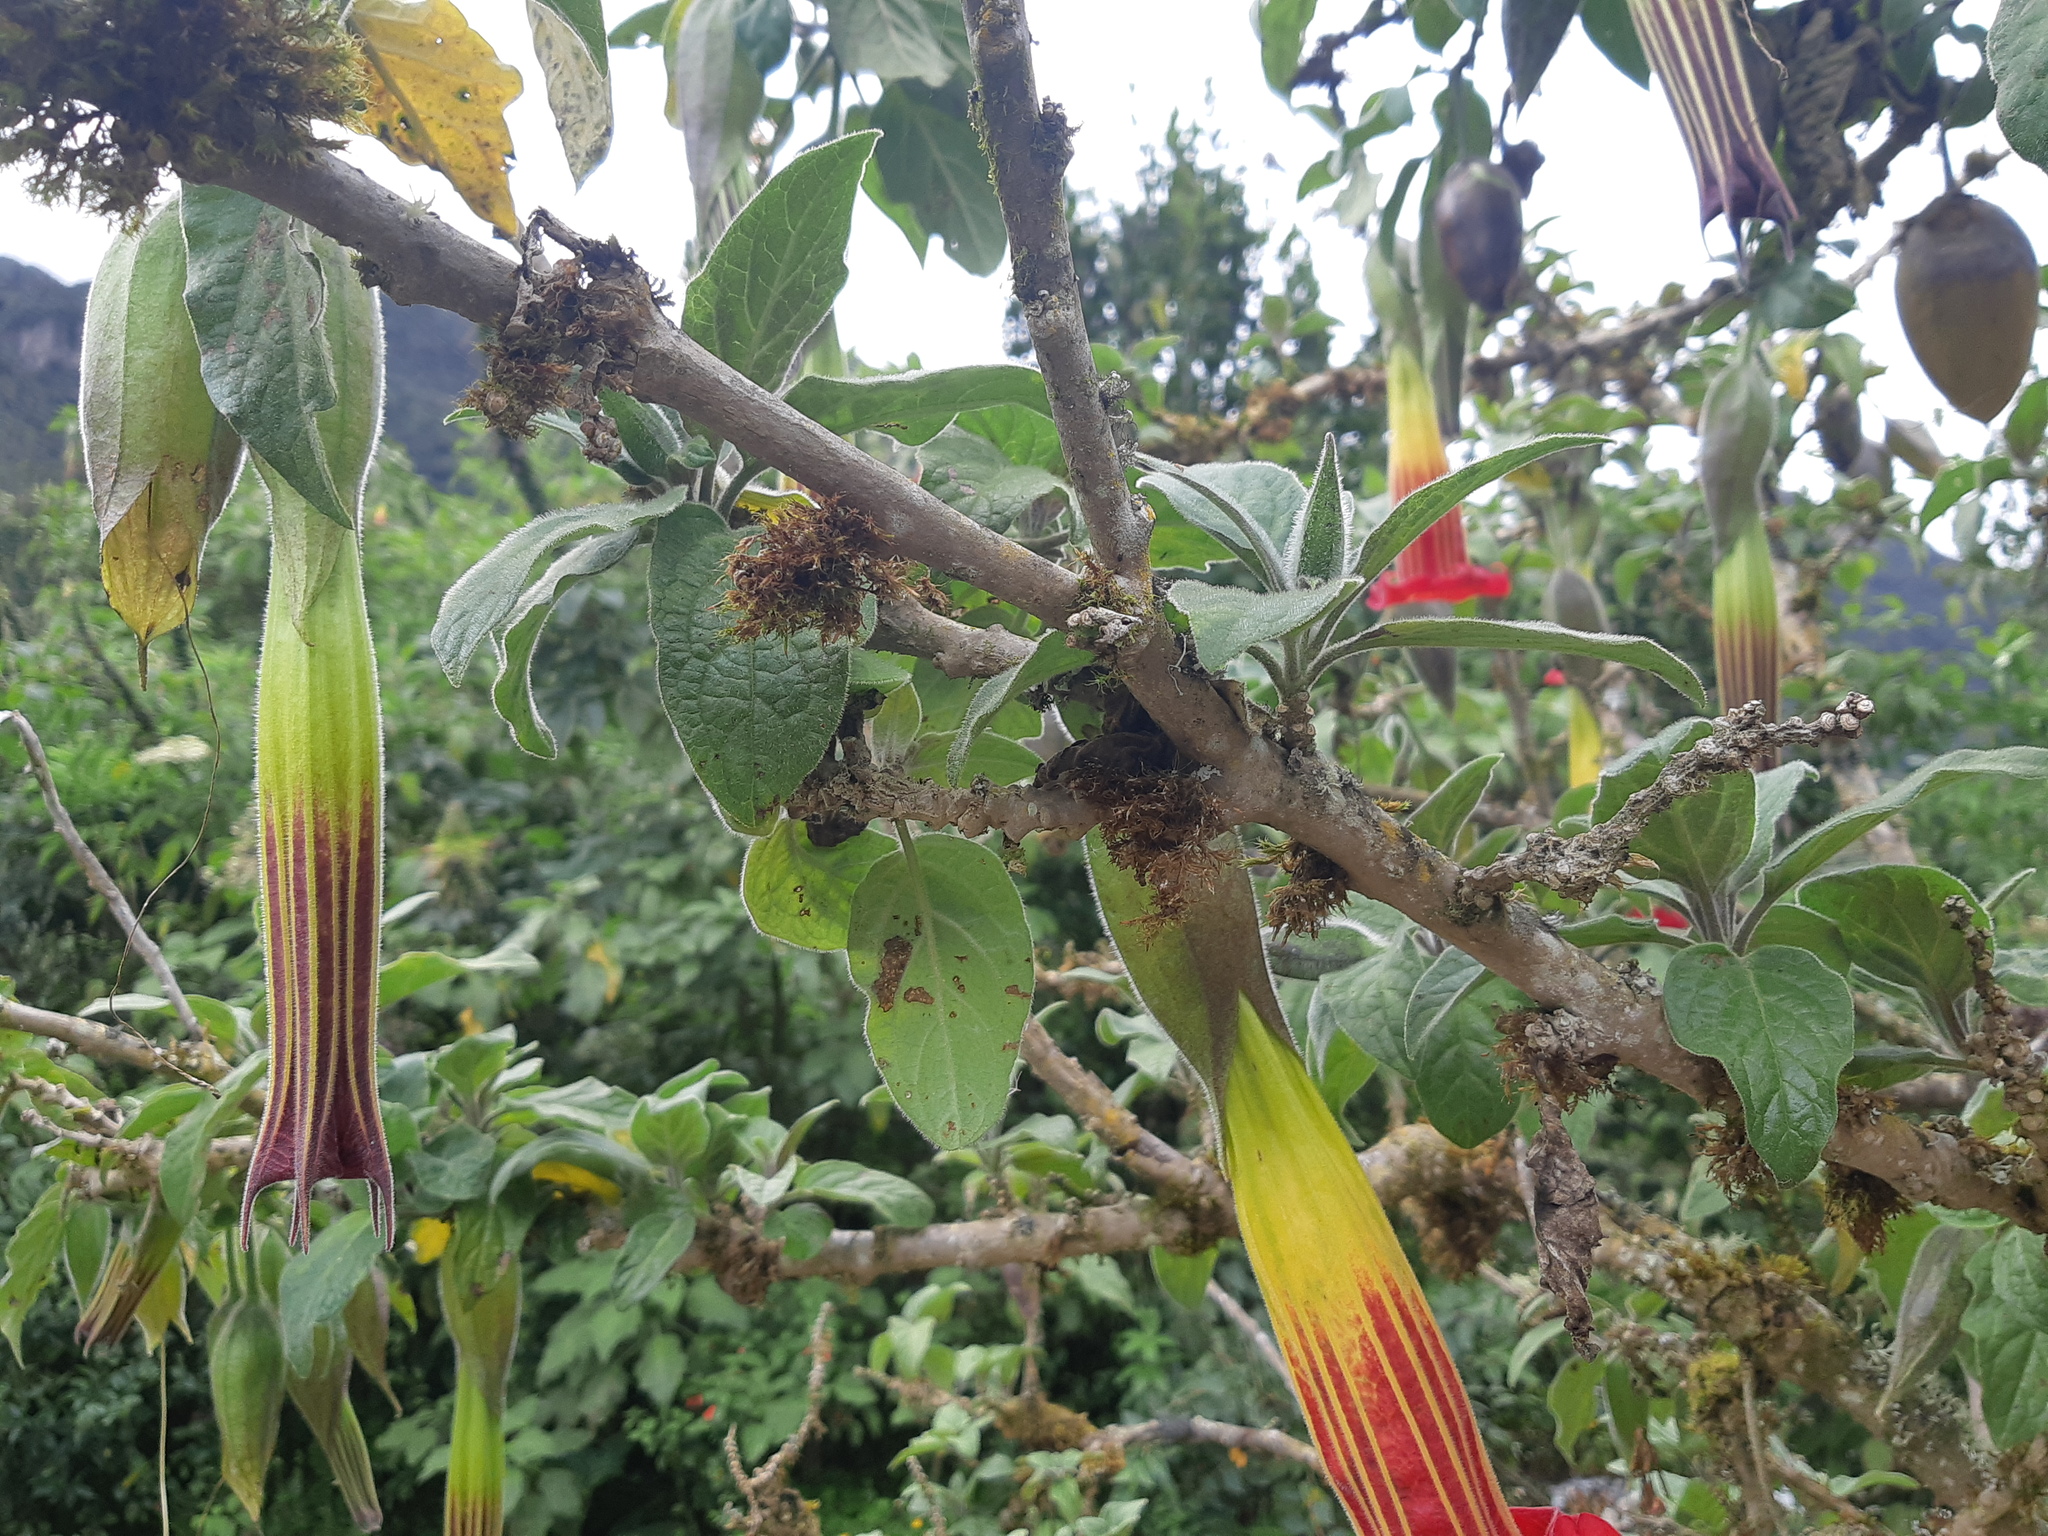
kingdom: Plantae
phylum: Tracheophyta
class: Magnoliopsida
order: Solanales
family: Solanaceae
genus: Brugmansia
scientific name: Brugmansia sanguinea
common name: Red floripontio
